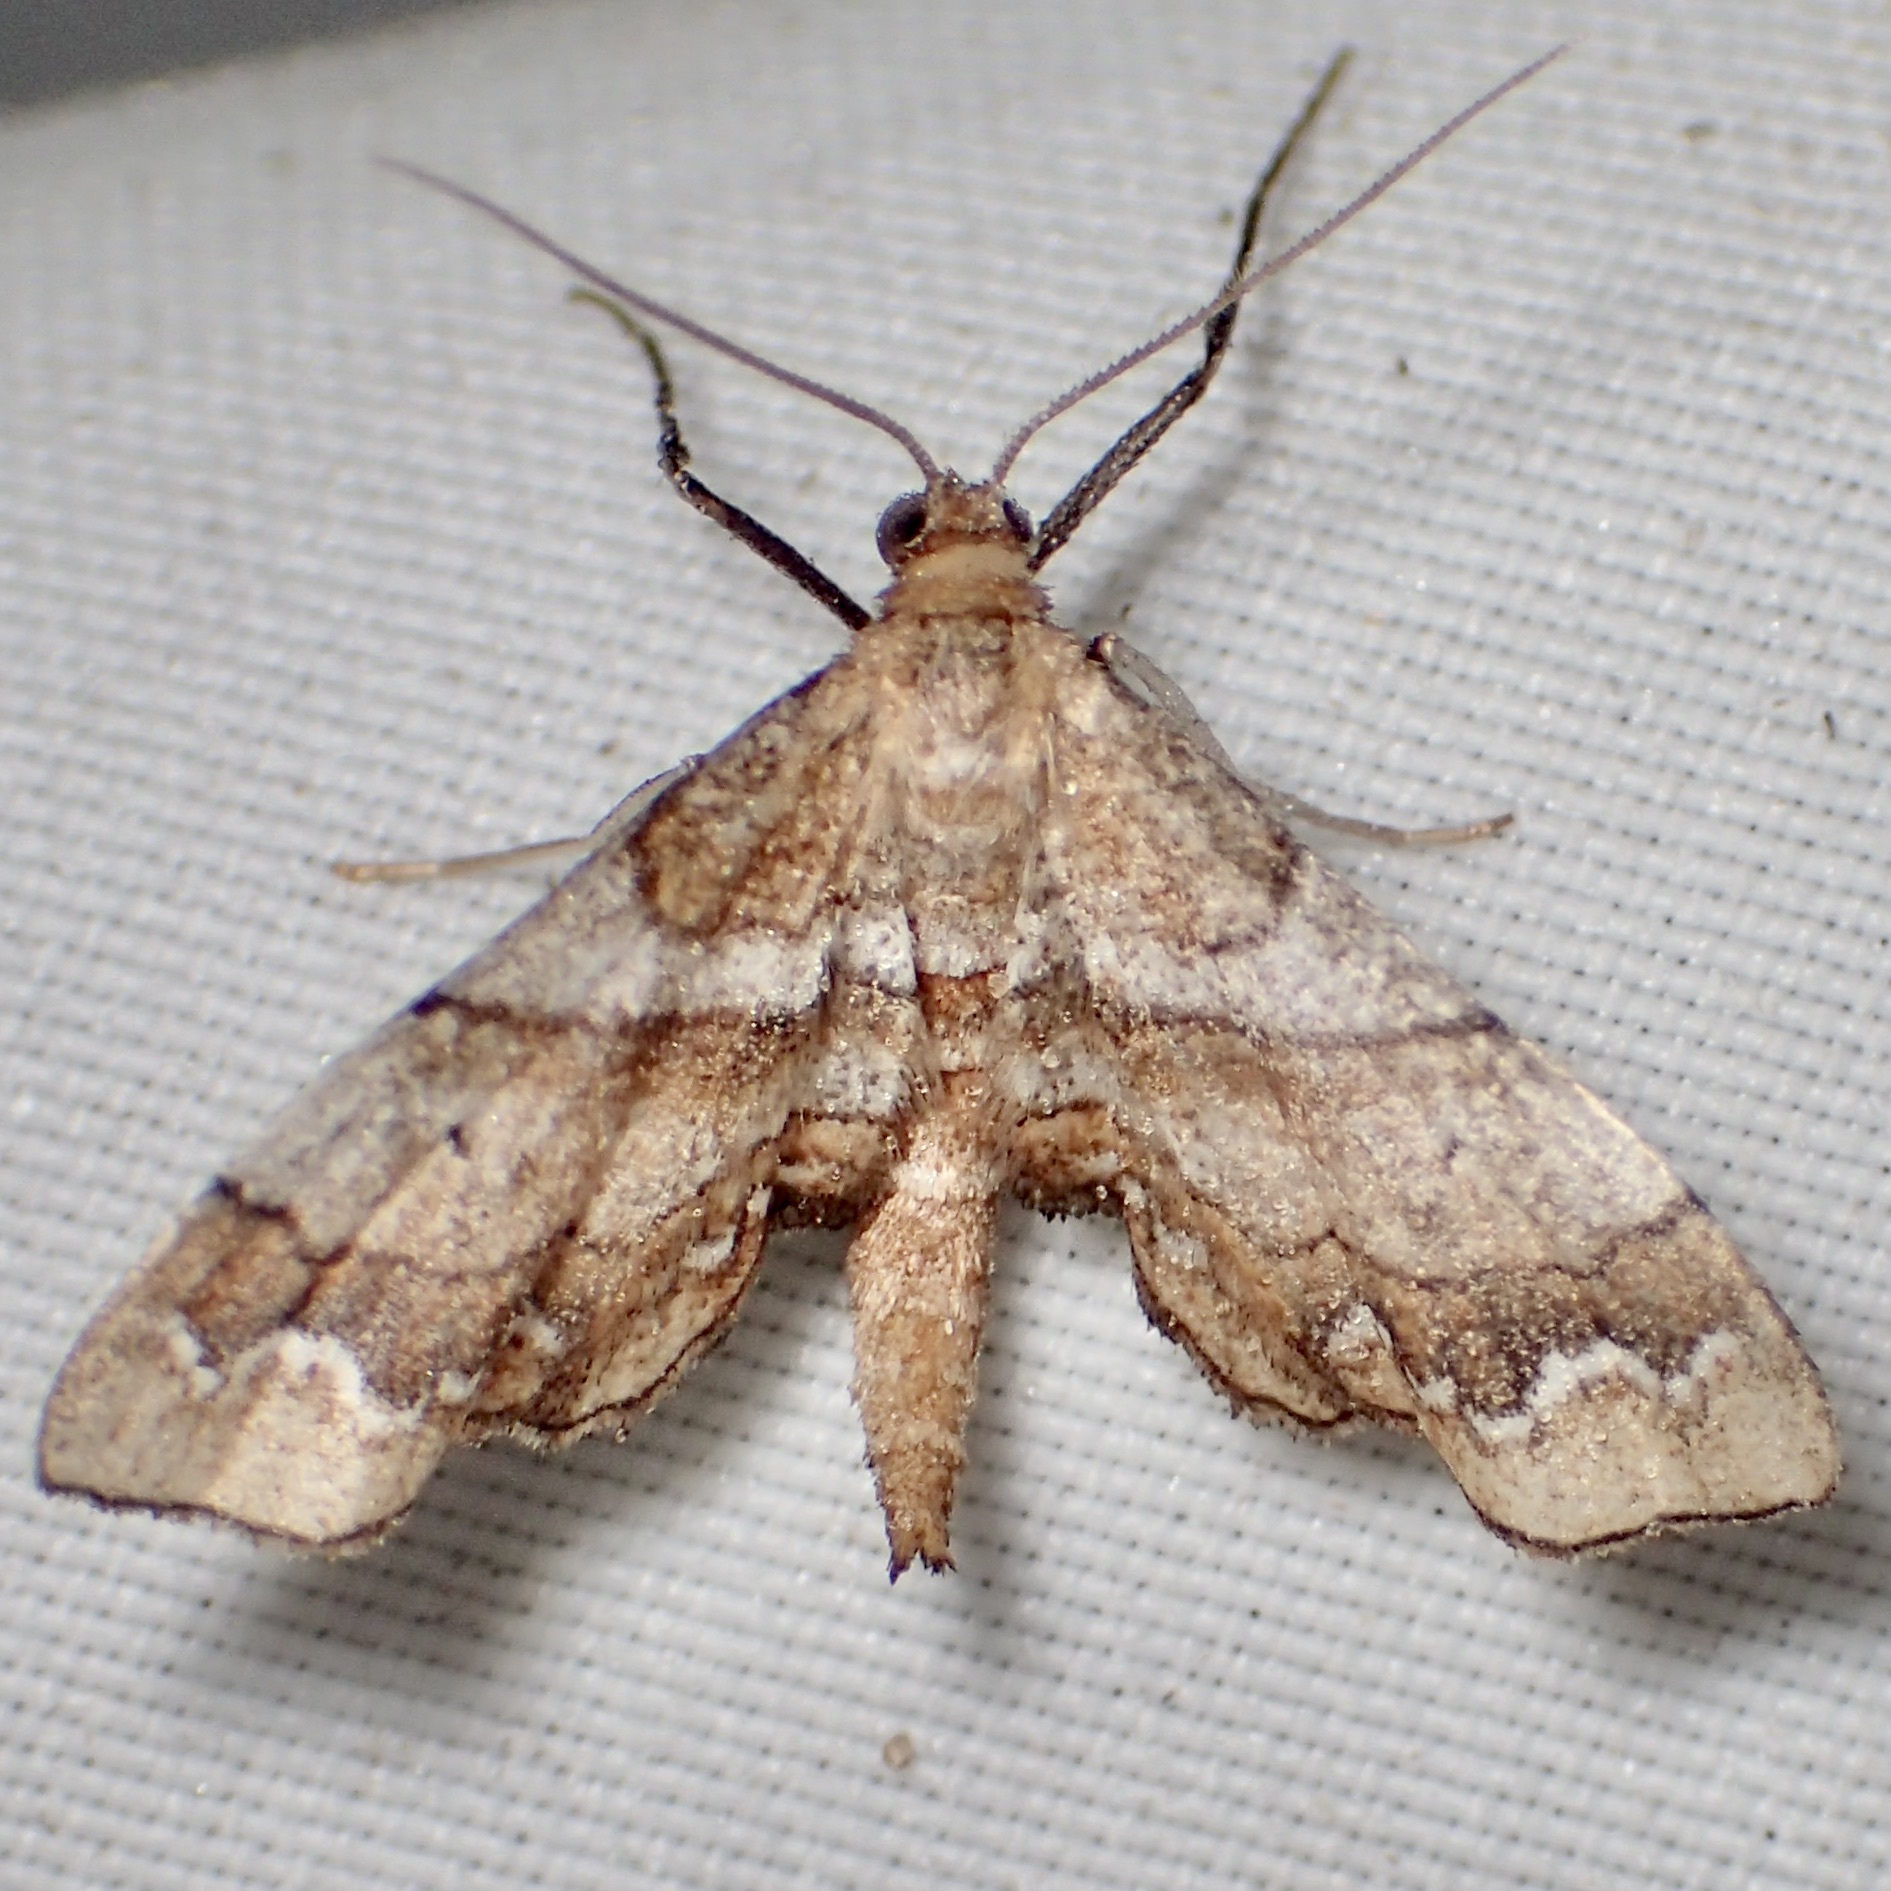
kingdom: Animalia
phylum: Arthropoda
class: Insecta
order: Lepidoptera
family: Geometridae
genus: Odontoptila
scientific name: Odontoptila obrimo
